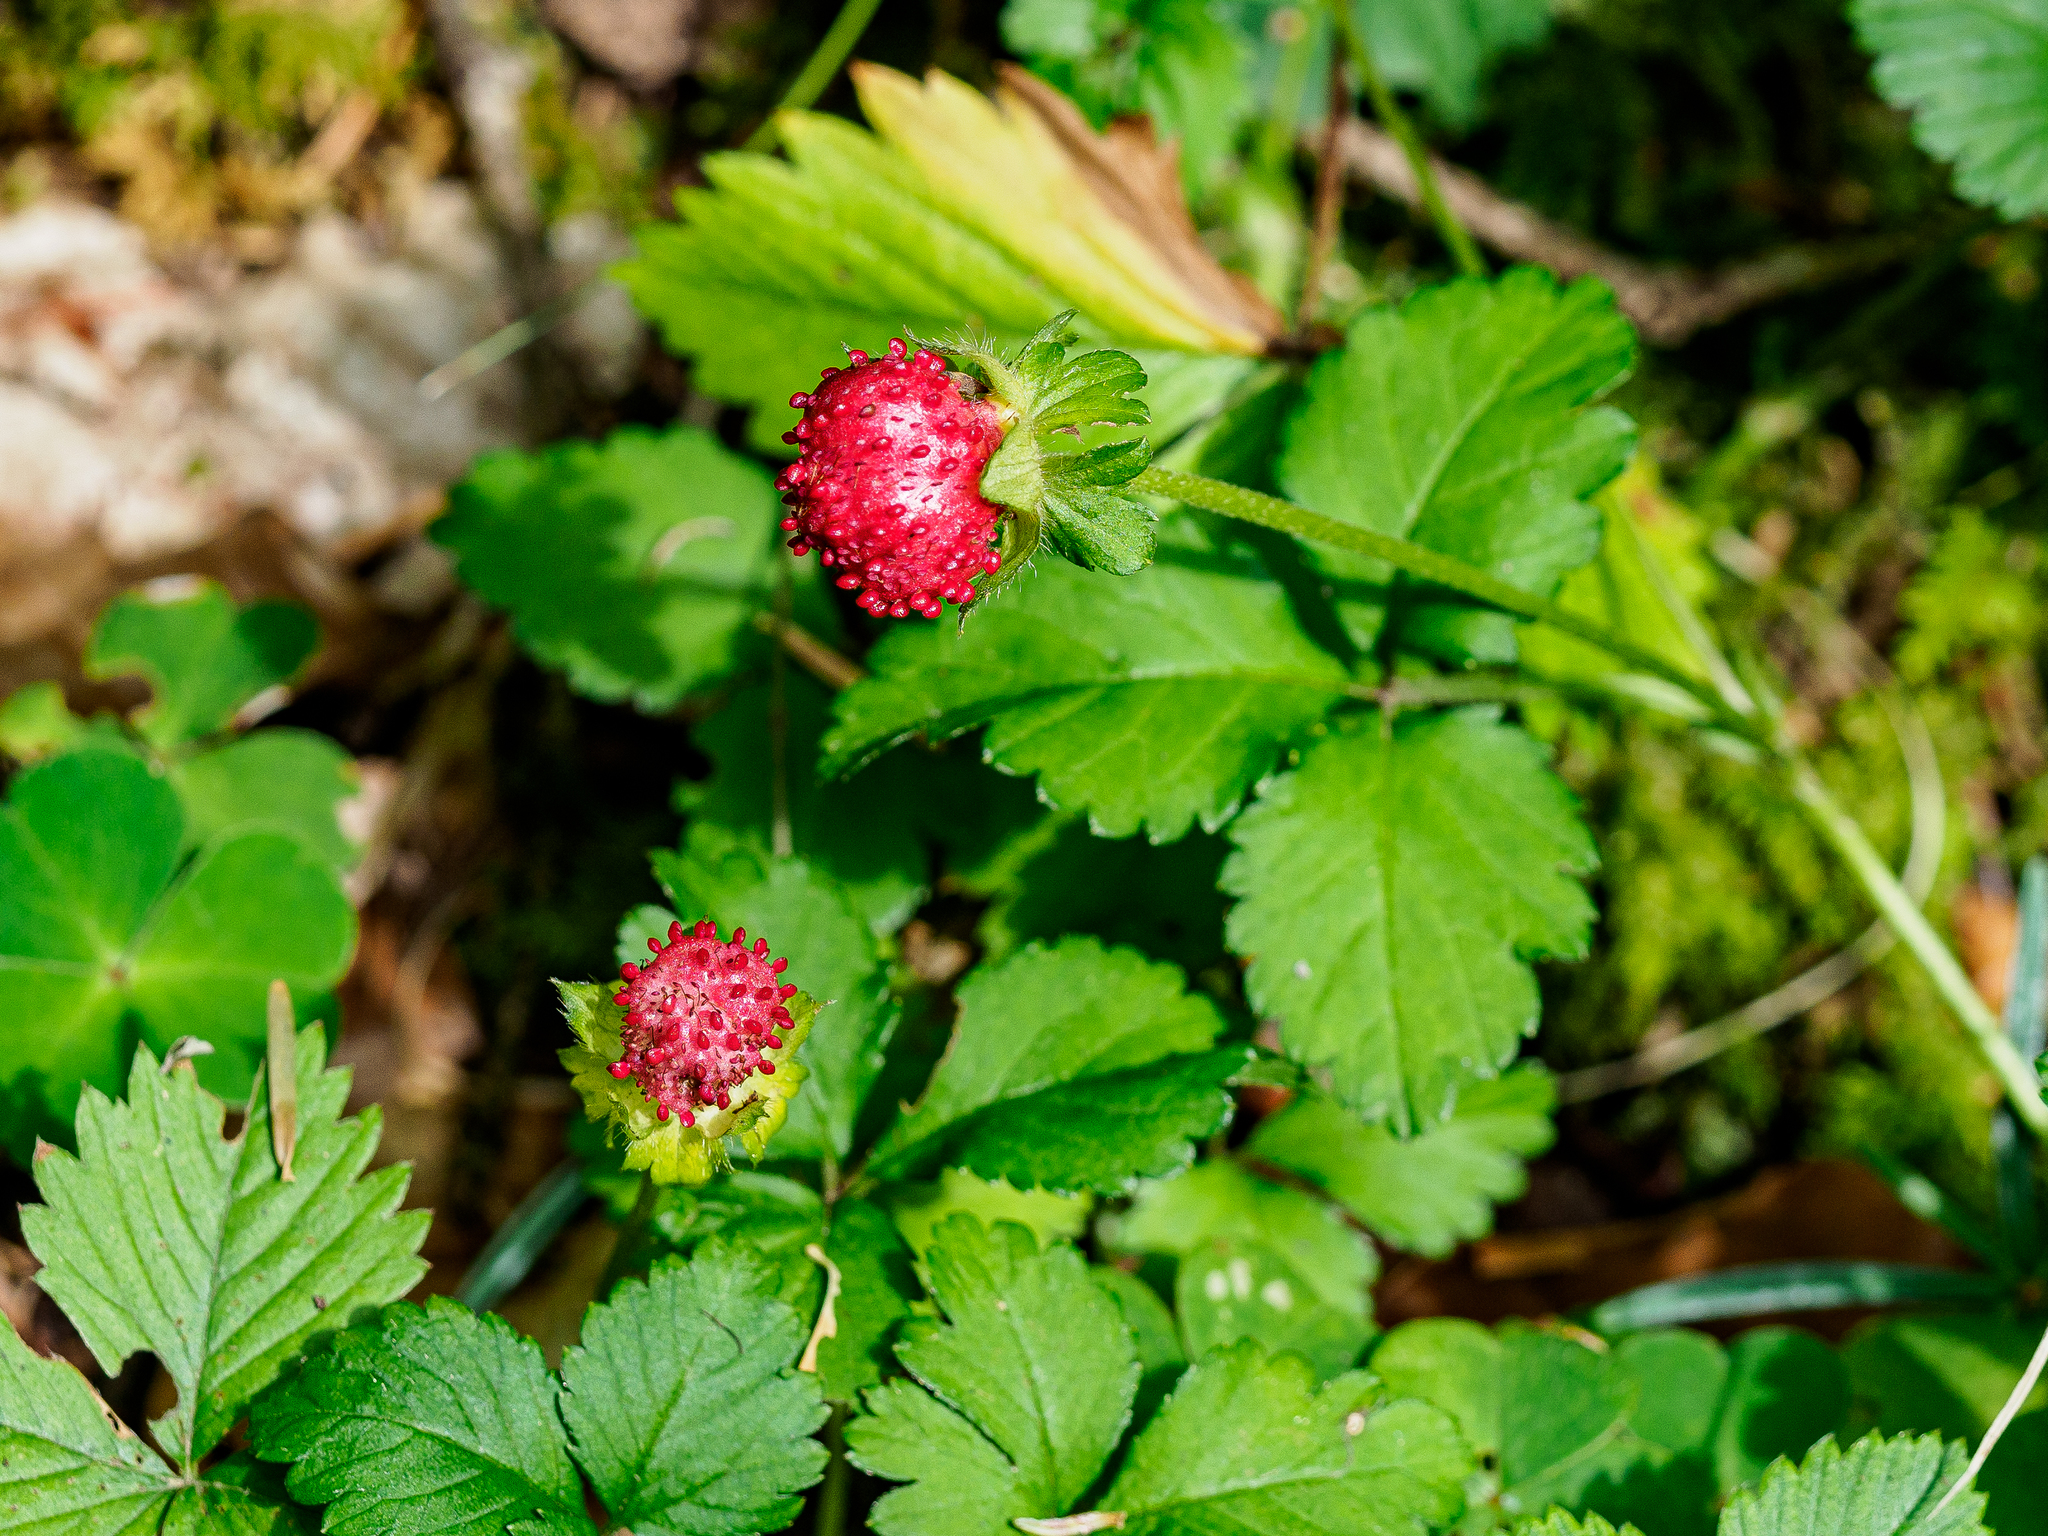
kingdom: Plantae
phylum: Tracheophyta
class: Magnoliopsida
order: Rosales
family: Rosaceae
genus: Potentilla
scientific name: Potentilla indica
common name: Yellow-flowered strawberry
